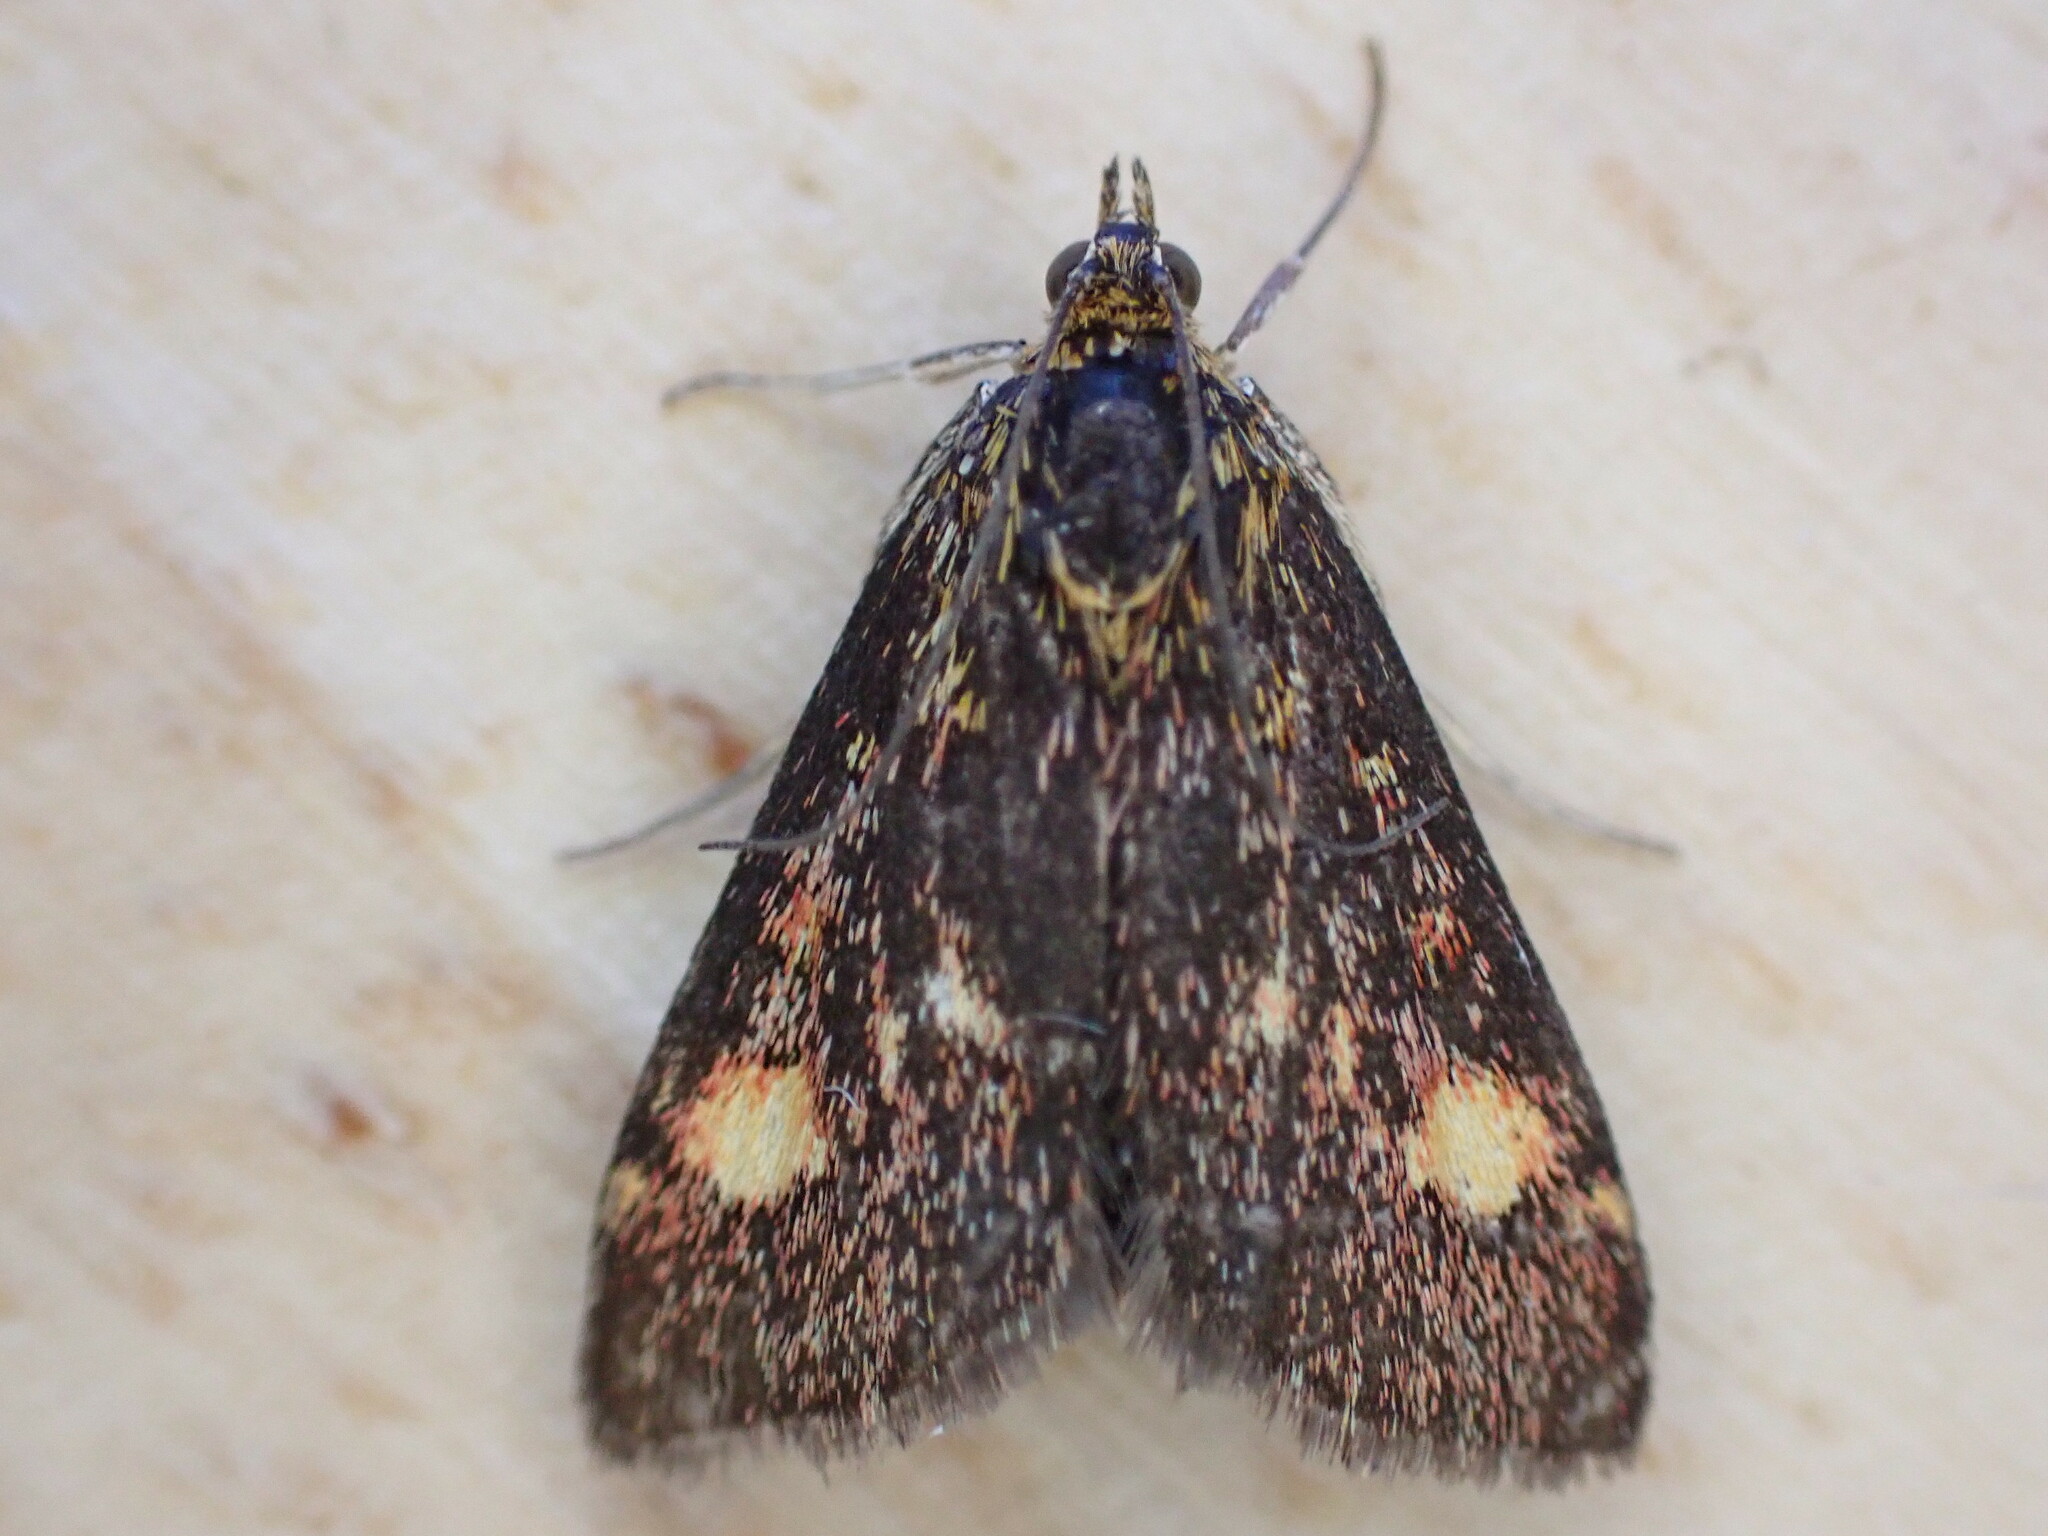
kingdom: Animalia
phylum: Arthropoda
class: Insecta
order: Lepidoptera
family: Crambidae
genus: Pyrausta
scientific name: Pyrausta aurata
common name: Small purple & gold
